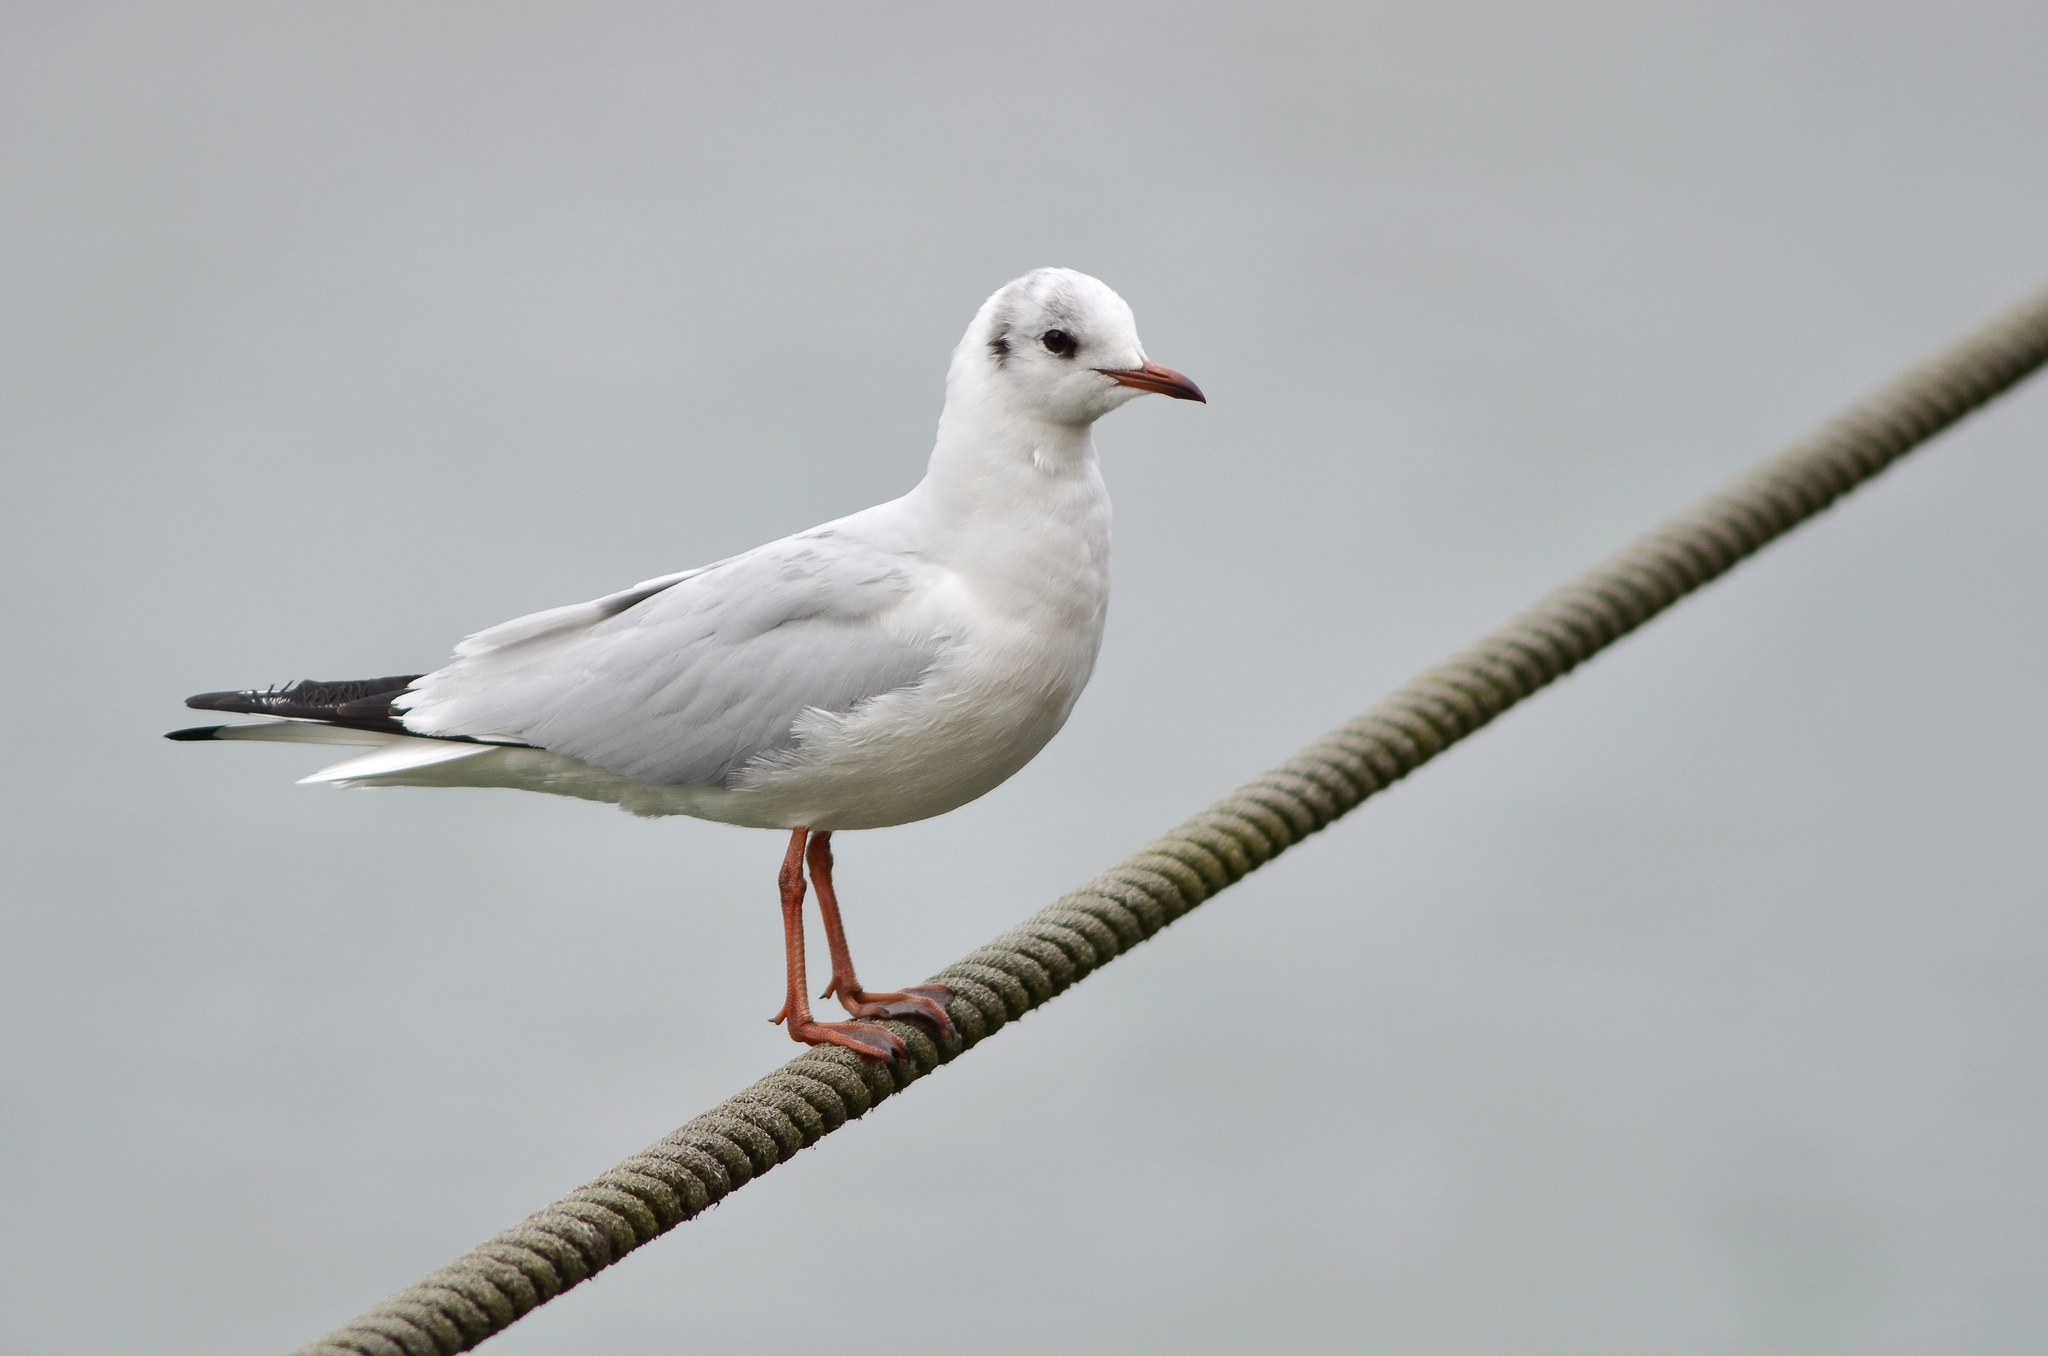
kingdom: Animalia
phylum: Chordata
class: Aves
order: Charadriiformes
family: Laridae
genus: Chroicocephalus
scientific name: Chroicocephalus ridibundus
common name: Black-headed gull
